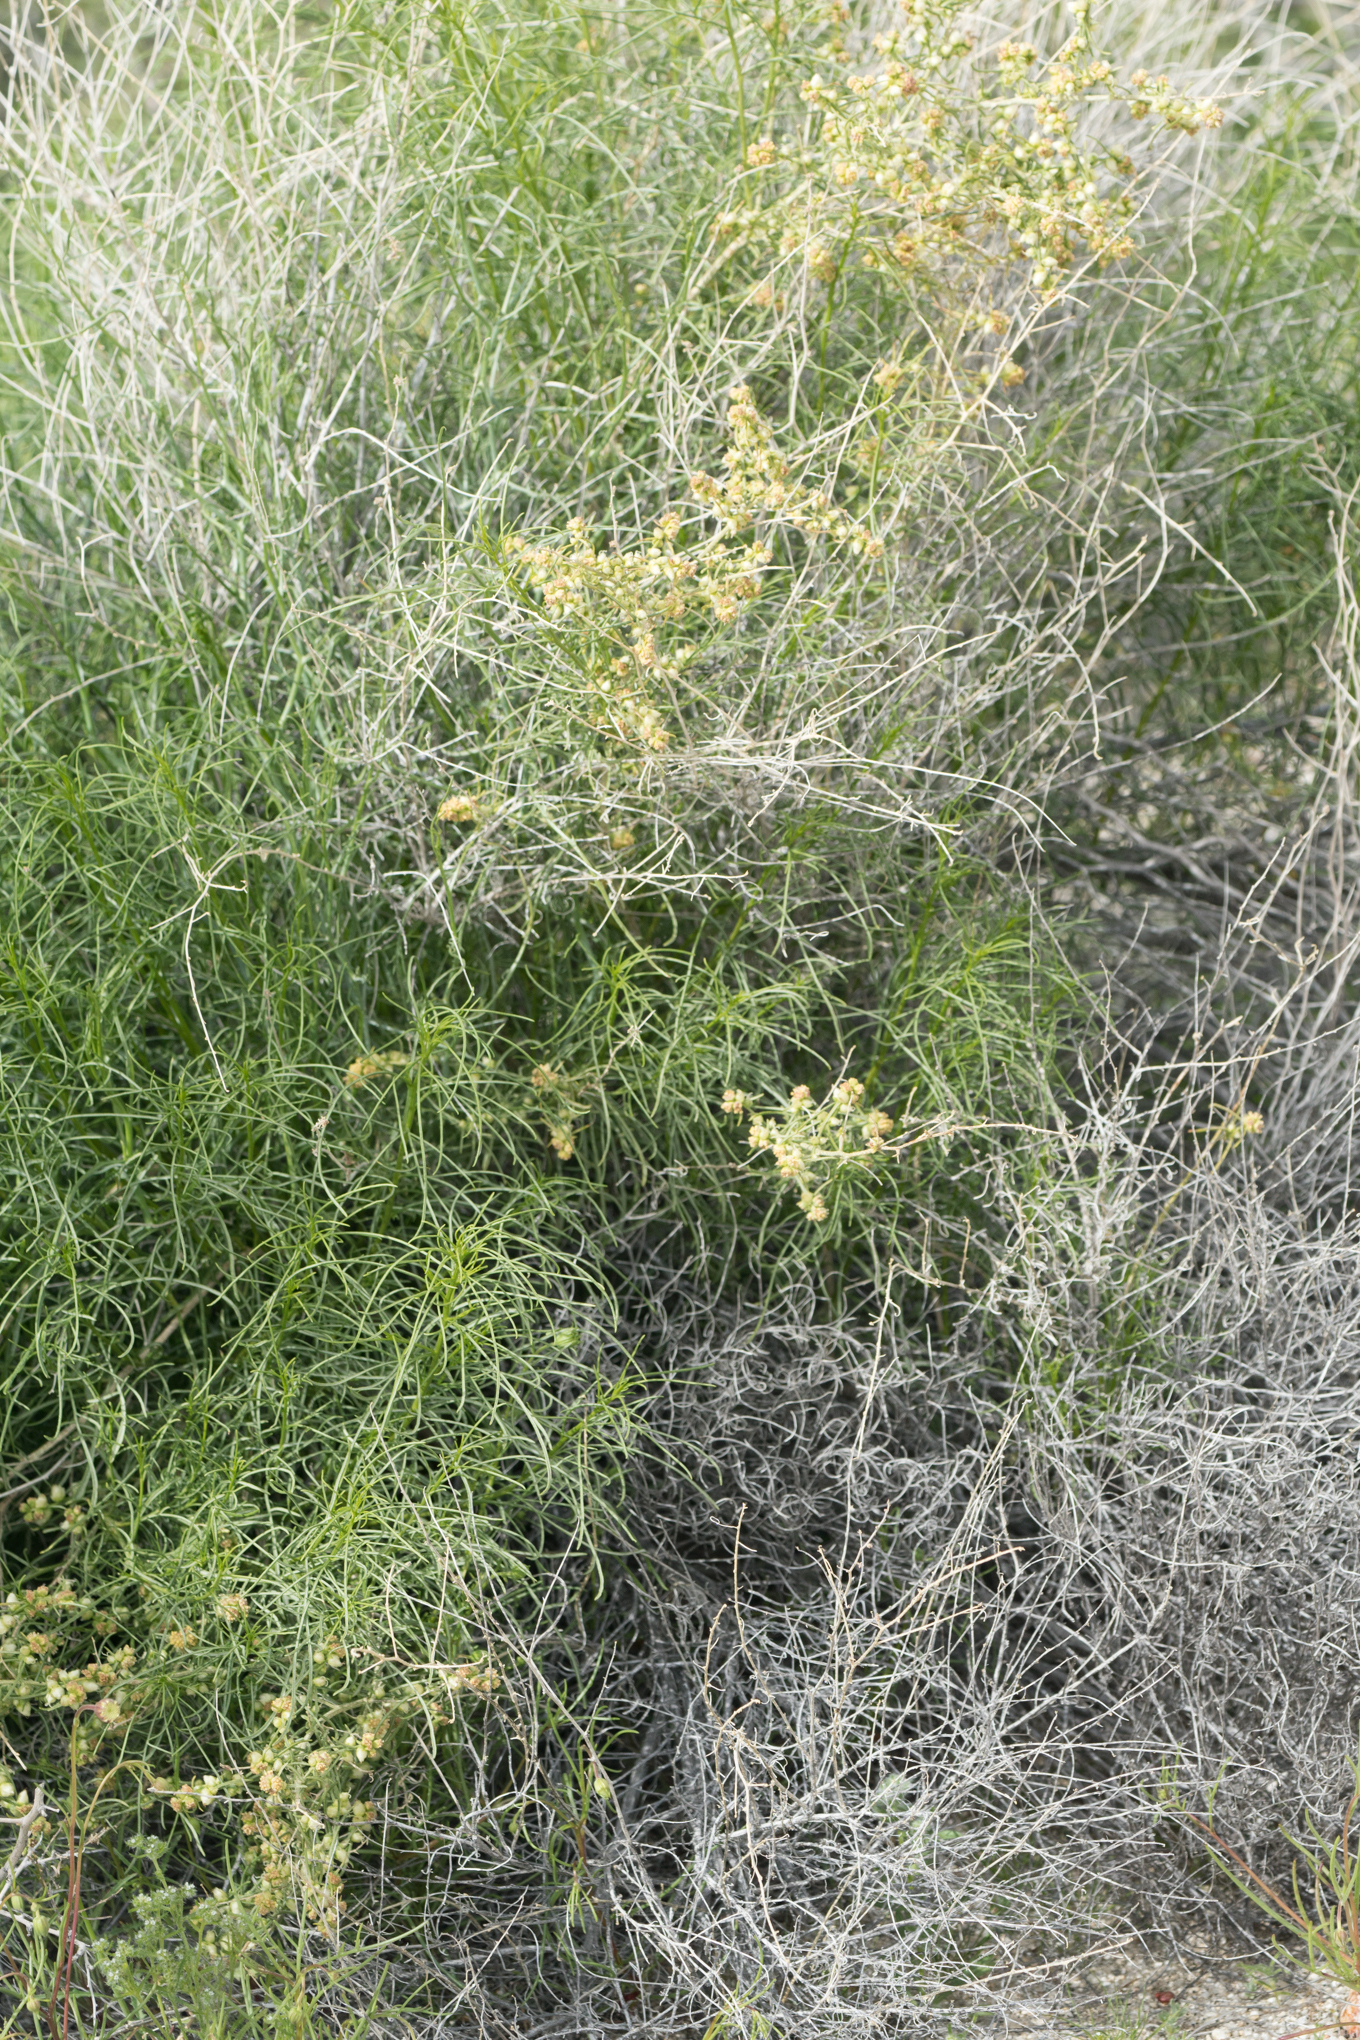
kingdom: Plantae
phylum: Tracheophyta
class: Magnoliopsida
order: Asterales
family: Asteraceae
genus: Ambrosia
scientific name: Ambrosia salsola
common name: Burrobrush
